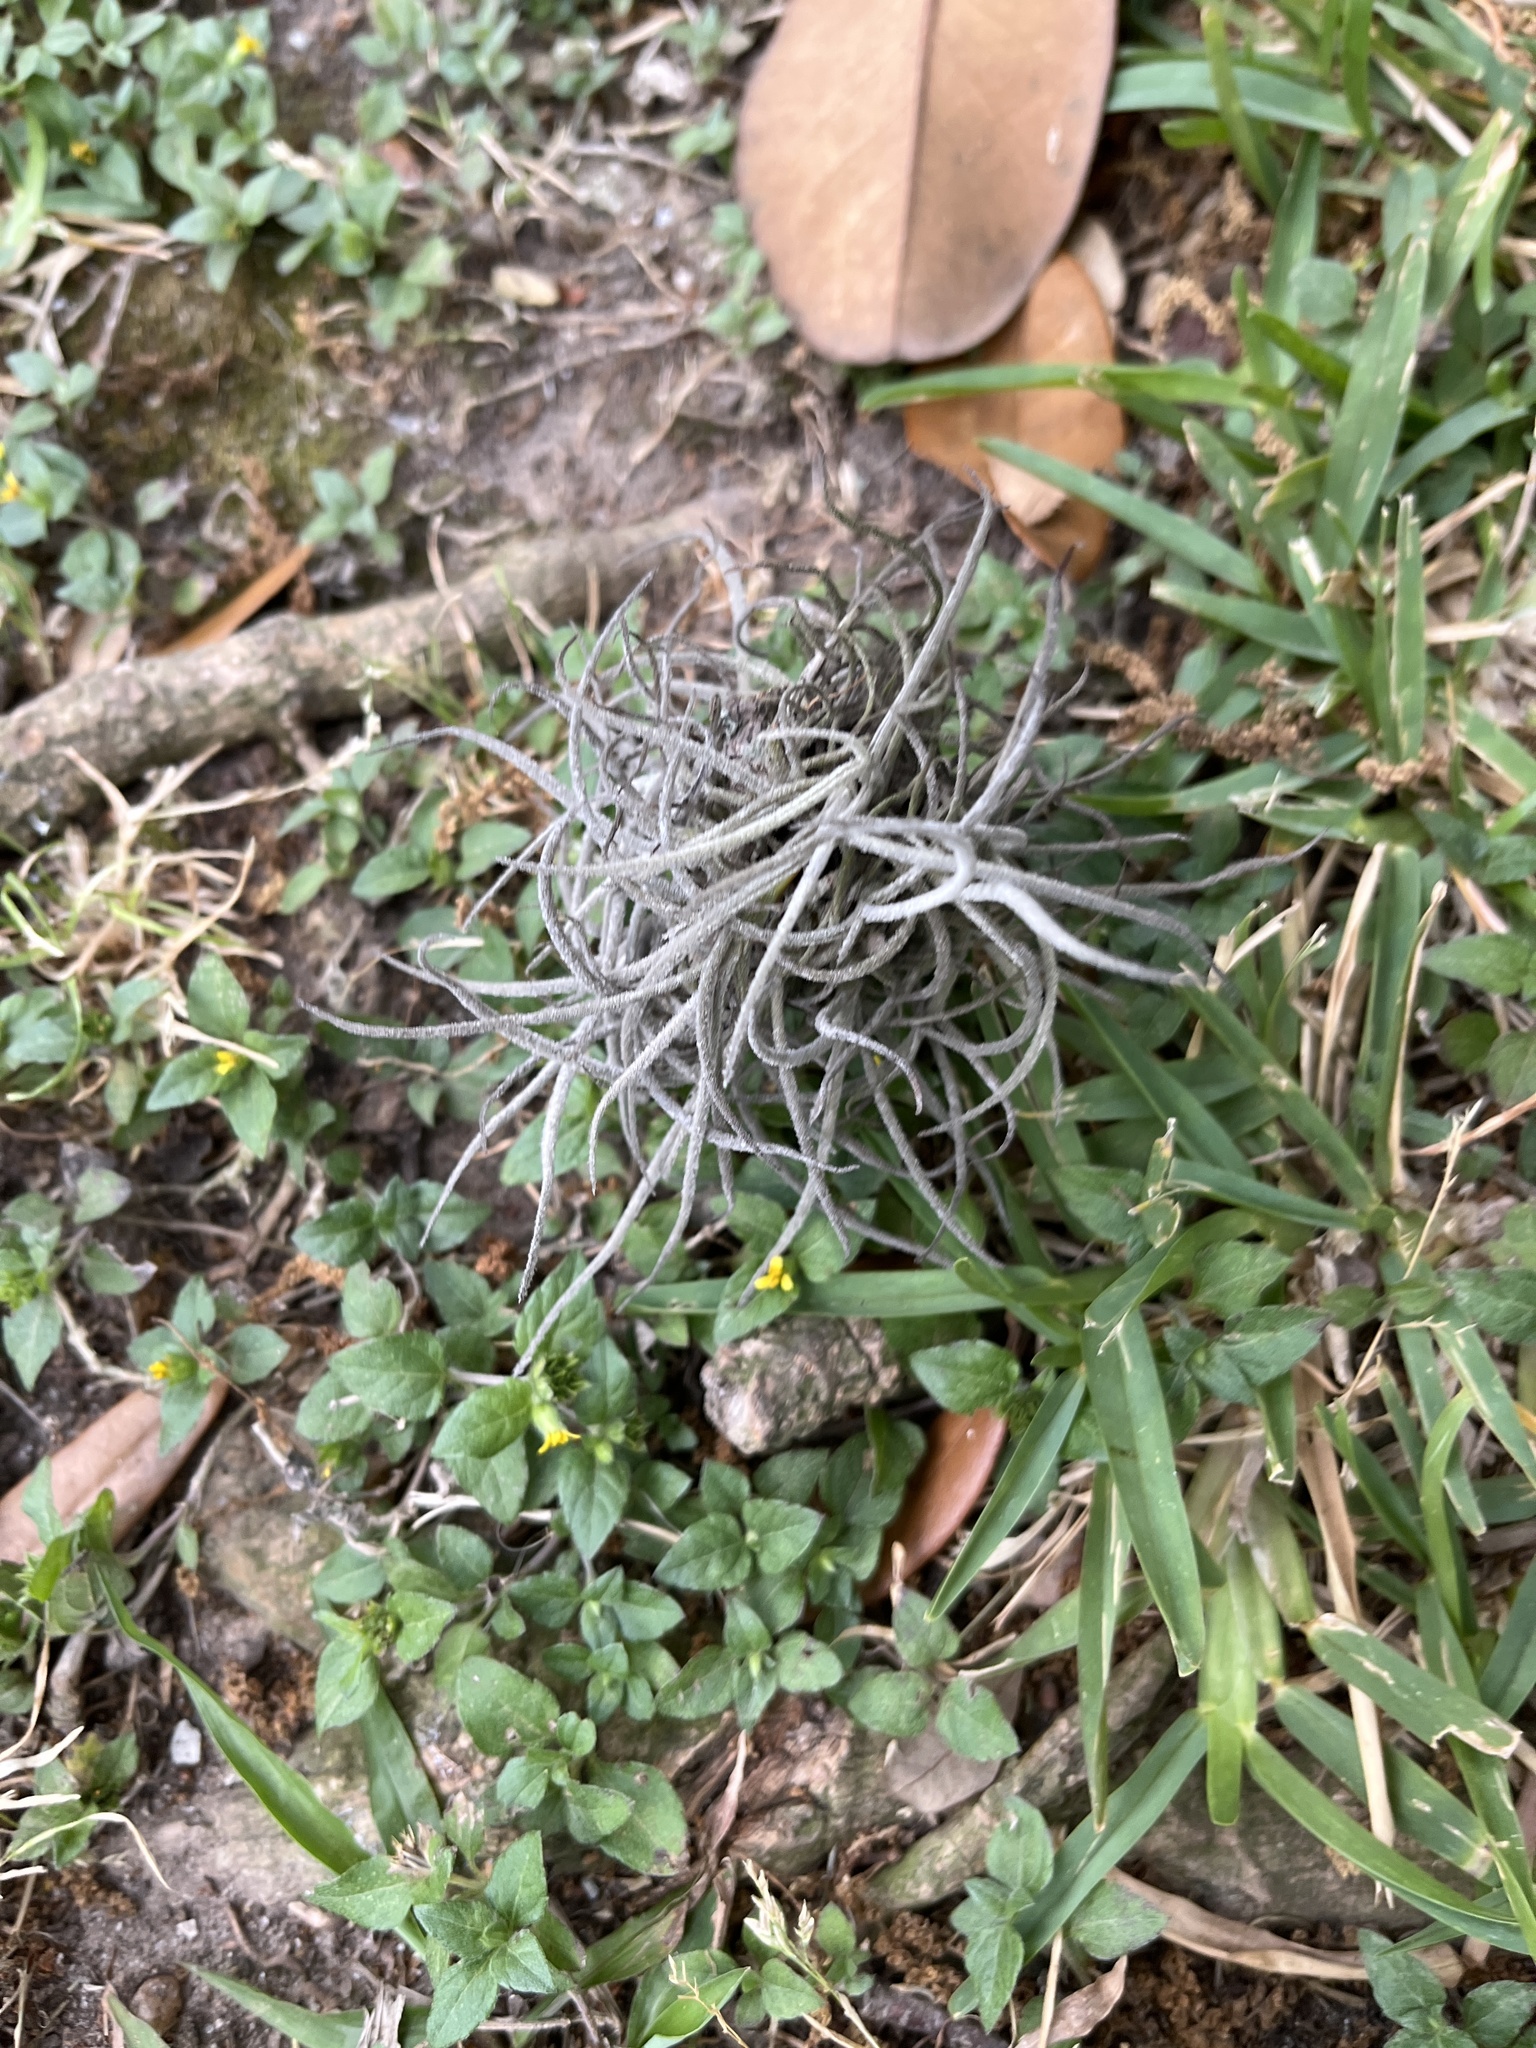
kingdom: Plantae
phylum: Tracheophyta
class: Liliopsida
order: Poales
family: Bromeliaceae
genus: Tillandsia
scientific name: Tillandsia recurvata
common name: Small ballmoss
